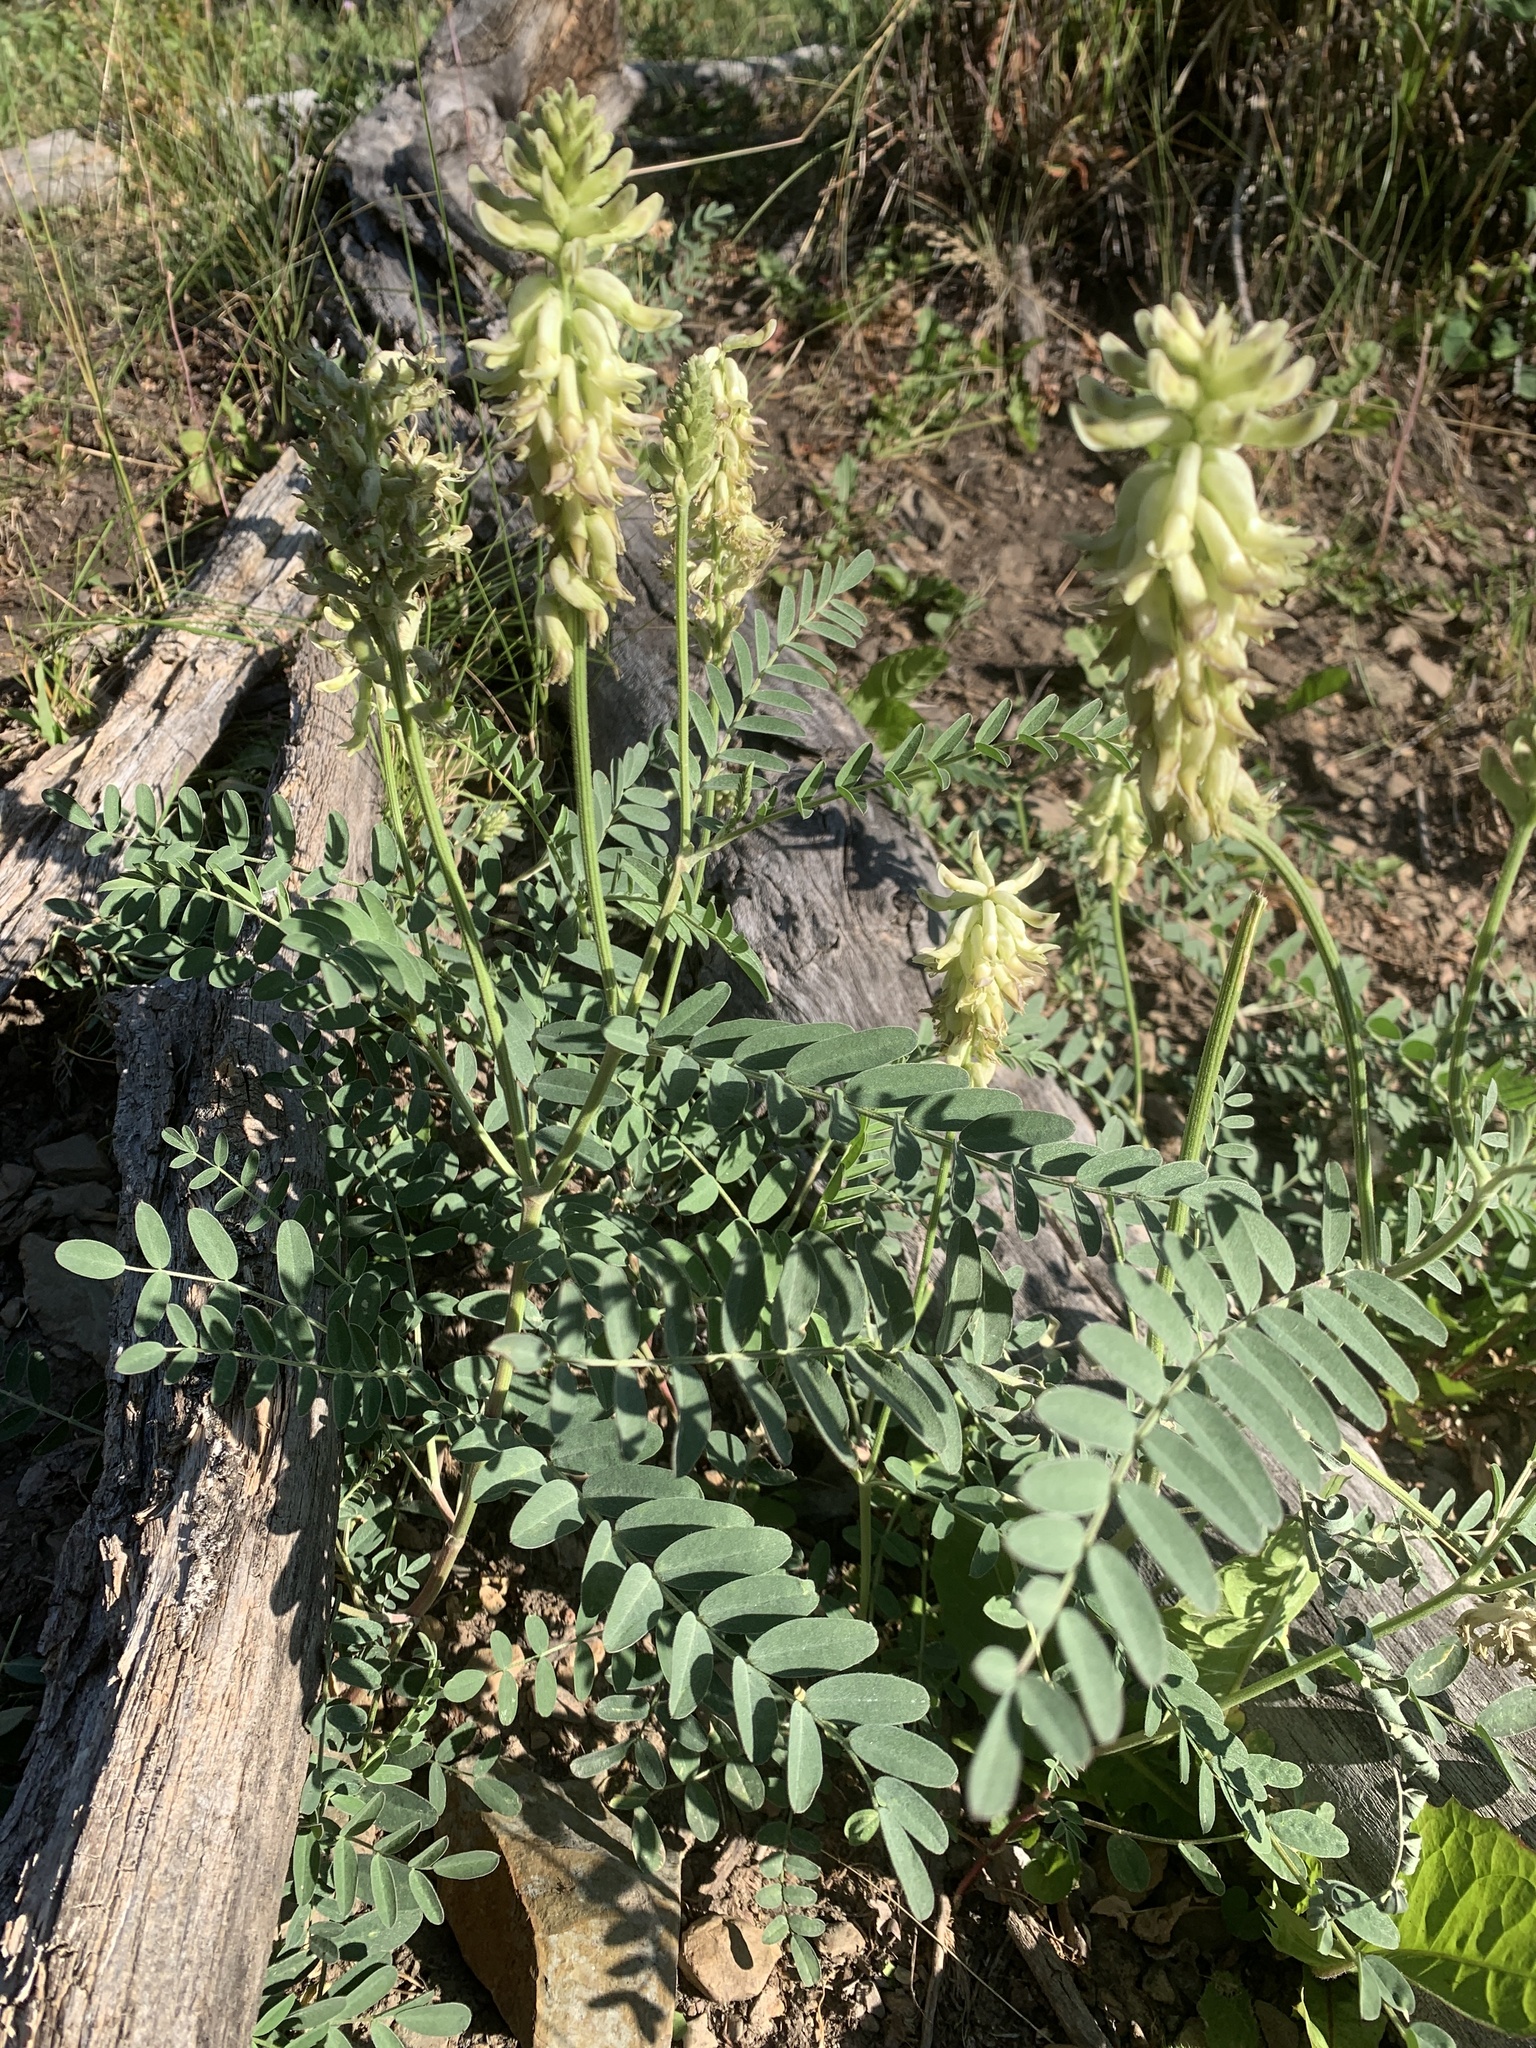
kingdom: Plantae
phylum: Tracheophyta
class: Magnoliopsida
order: Fabales
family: Fabaceae
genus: Astragalus
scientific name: Astragalus canadensis
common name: Canada milk-vetch
